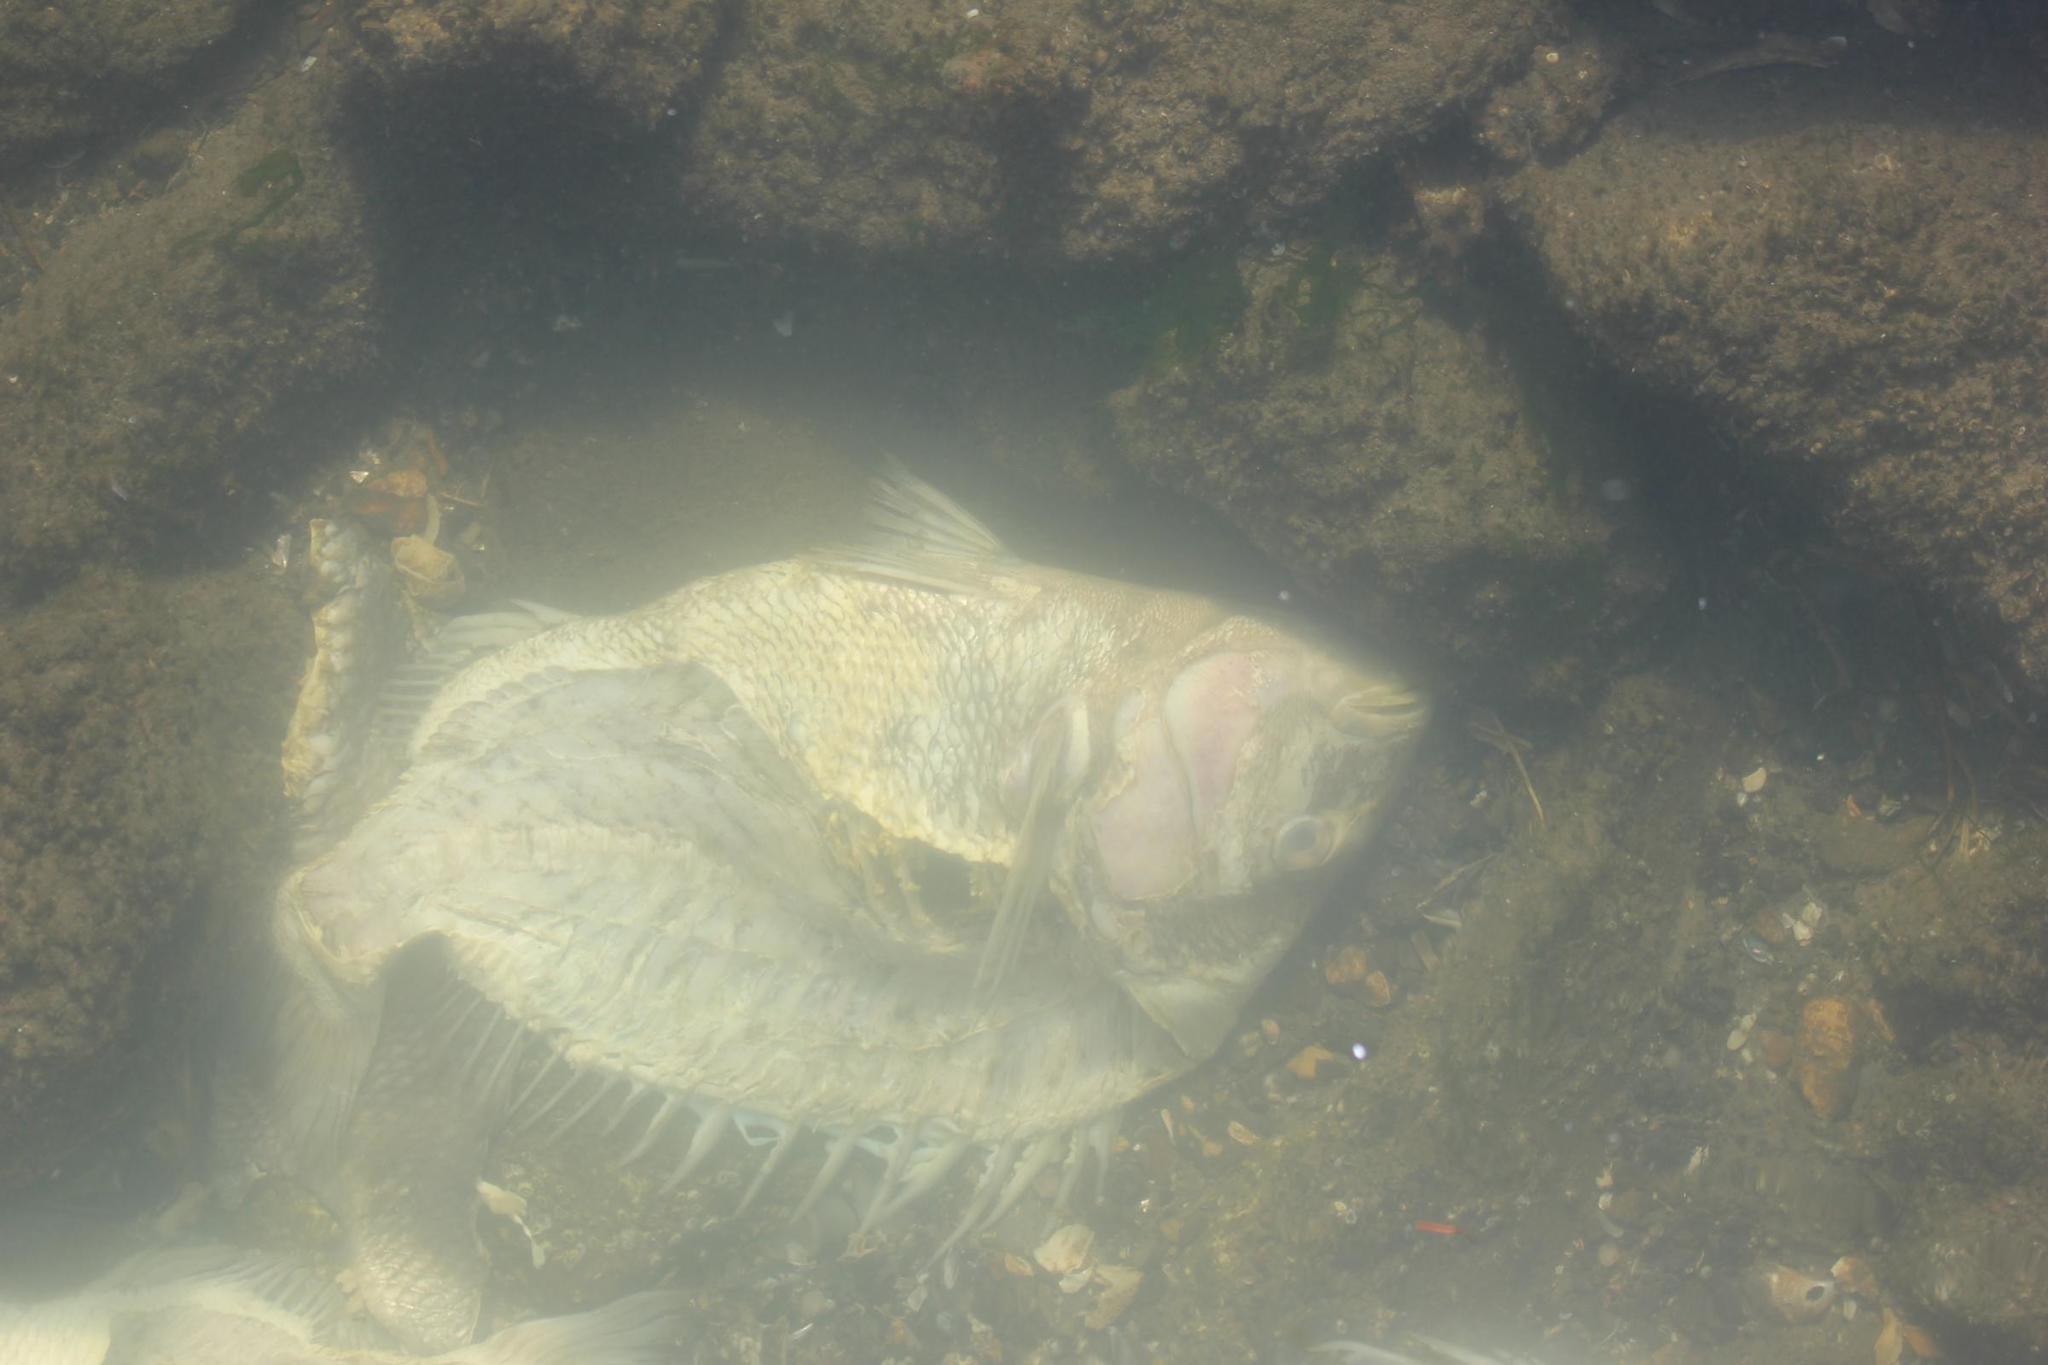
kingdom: Animalia
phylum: Chordata
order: Perciformes
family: Sparidae
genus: Archosargus
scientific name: Archosargus probatocephalus
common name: Sheepshead
